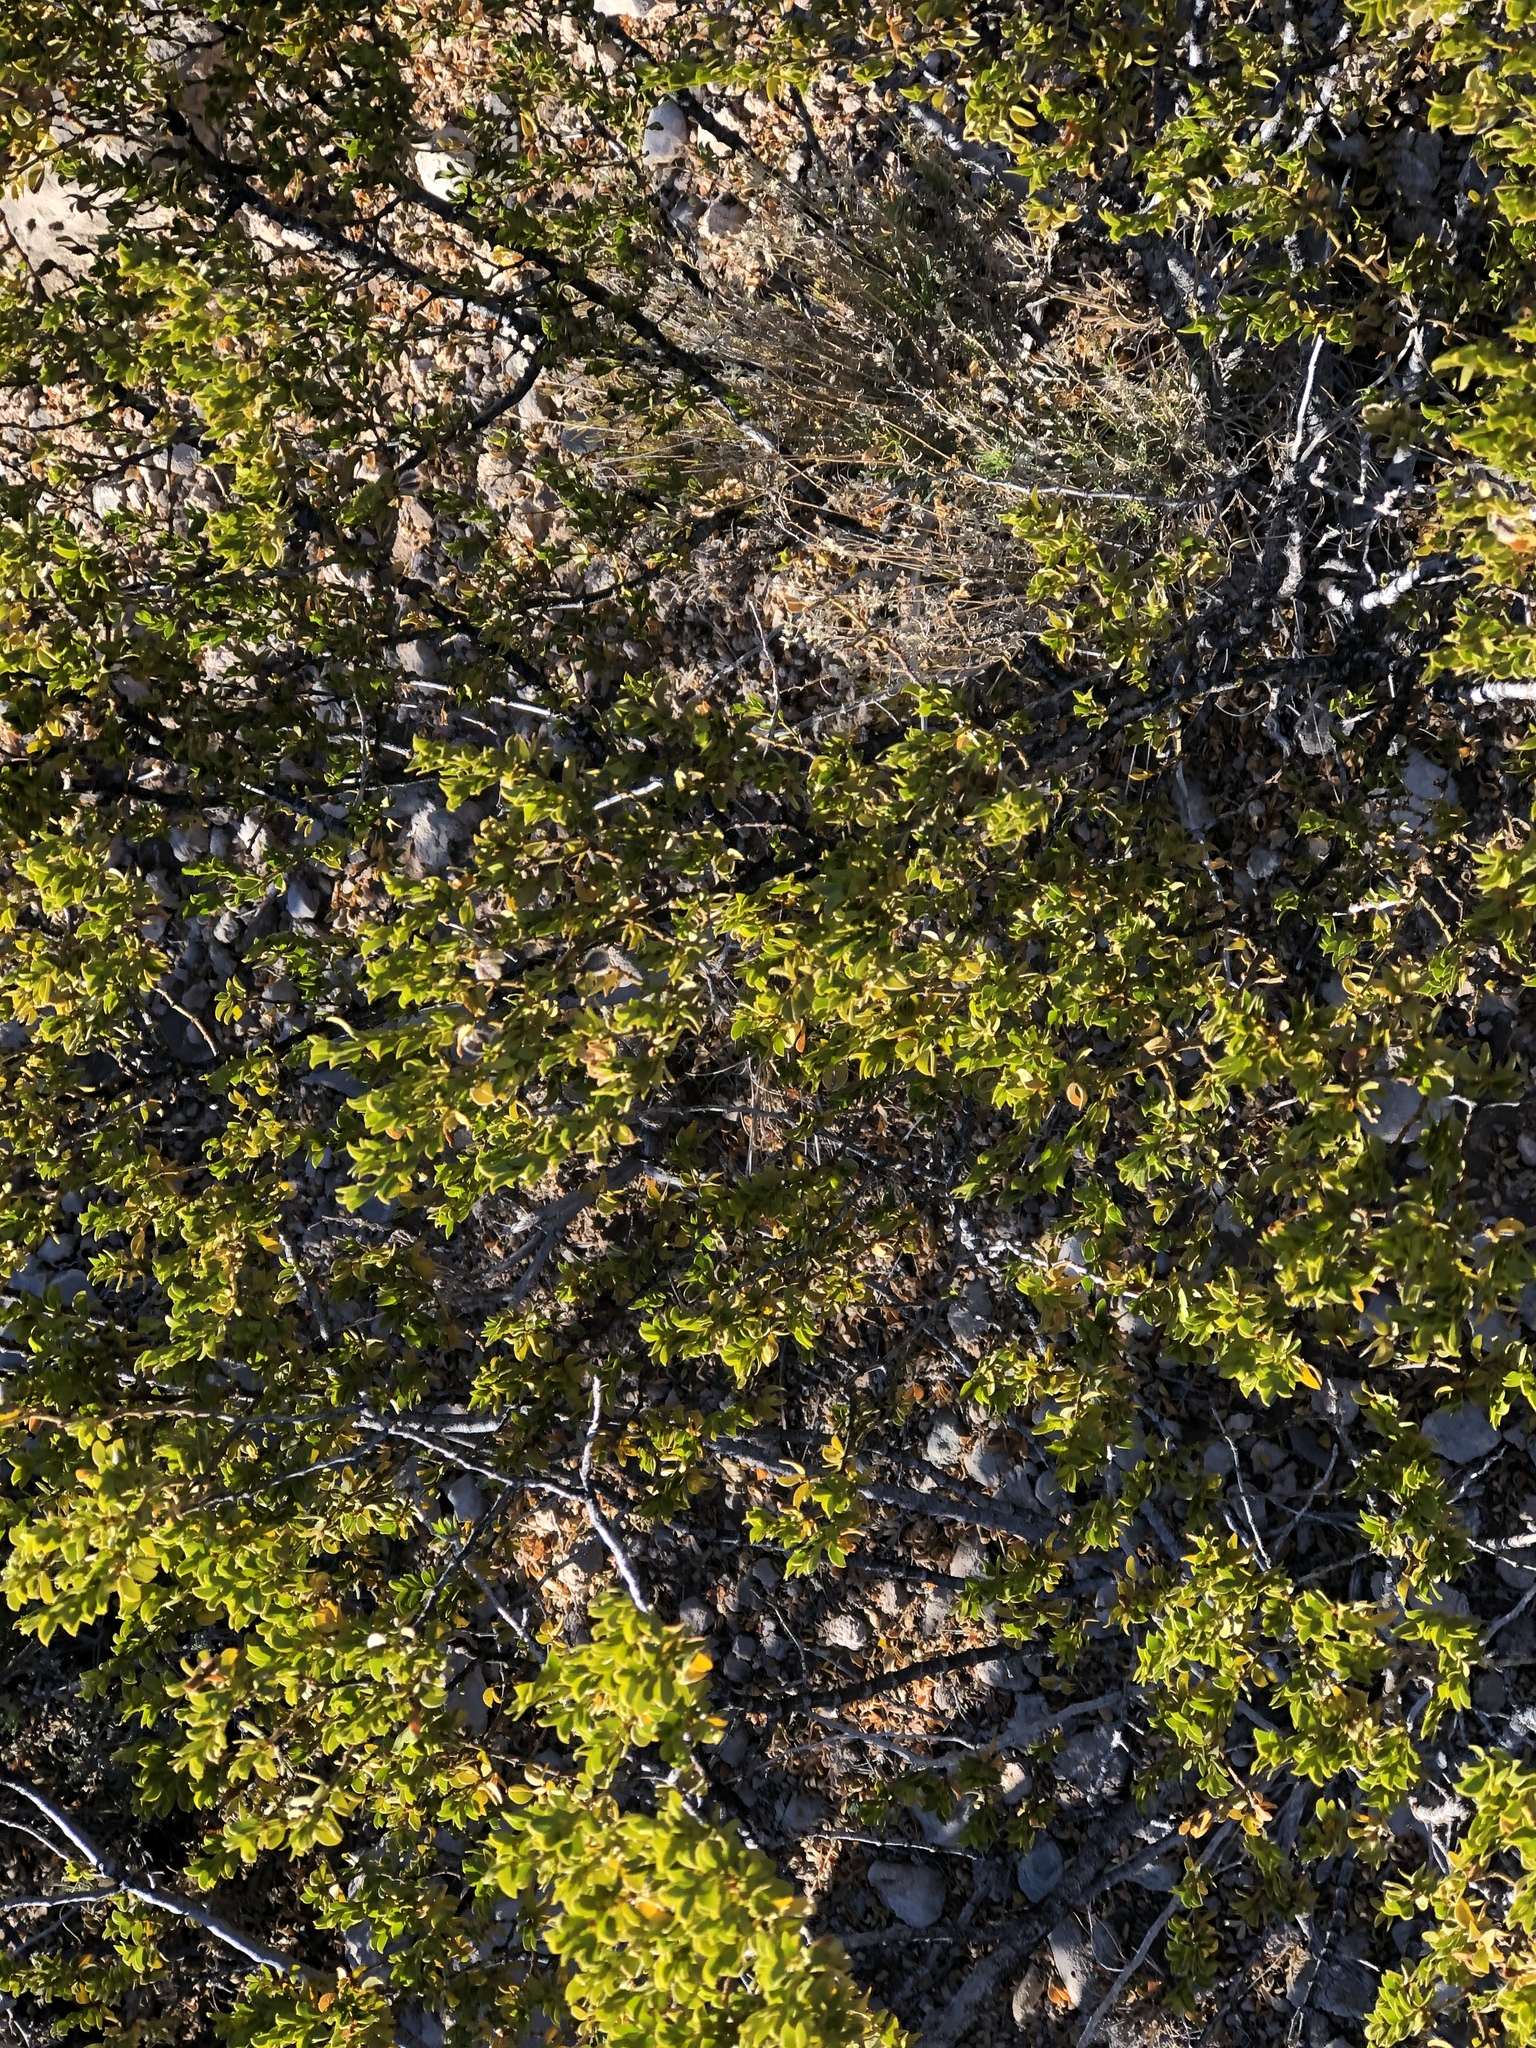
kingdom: Plantae
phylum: Tracheophyta
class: Magnoliopsida
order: Zygophyllales
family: Zygophyllaceae
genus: Larrea
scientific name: Larrea tridentata
